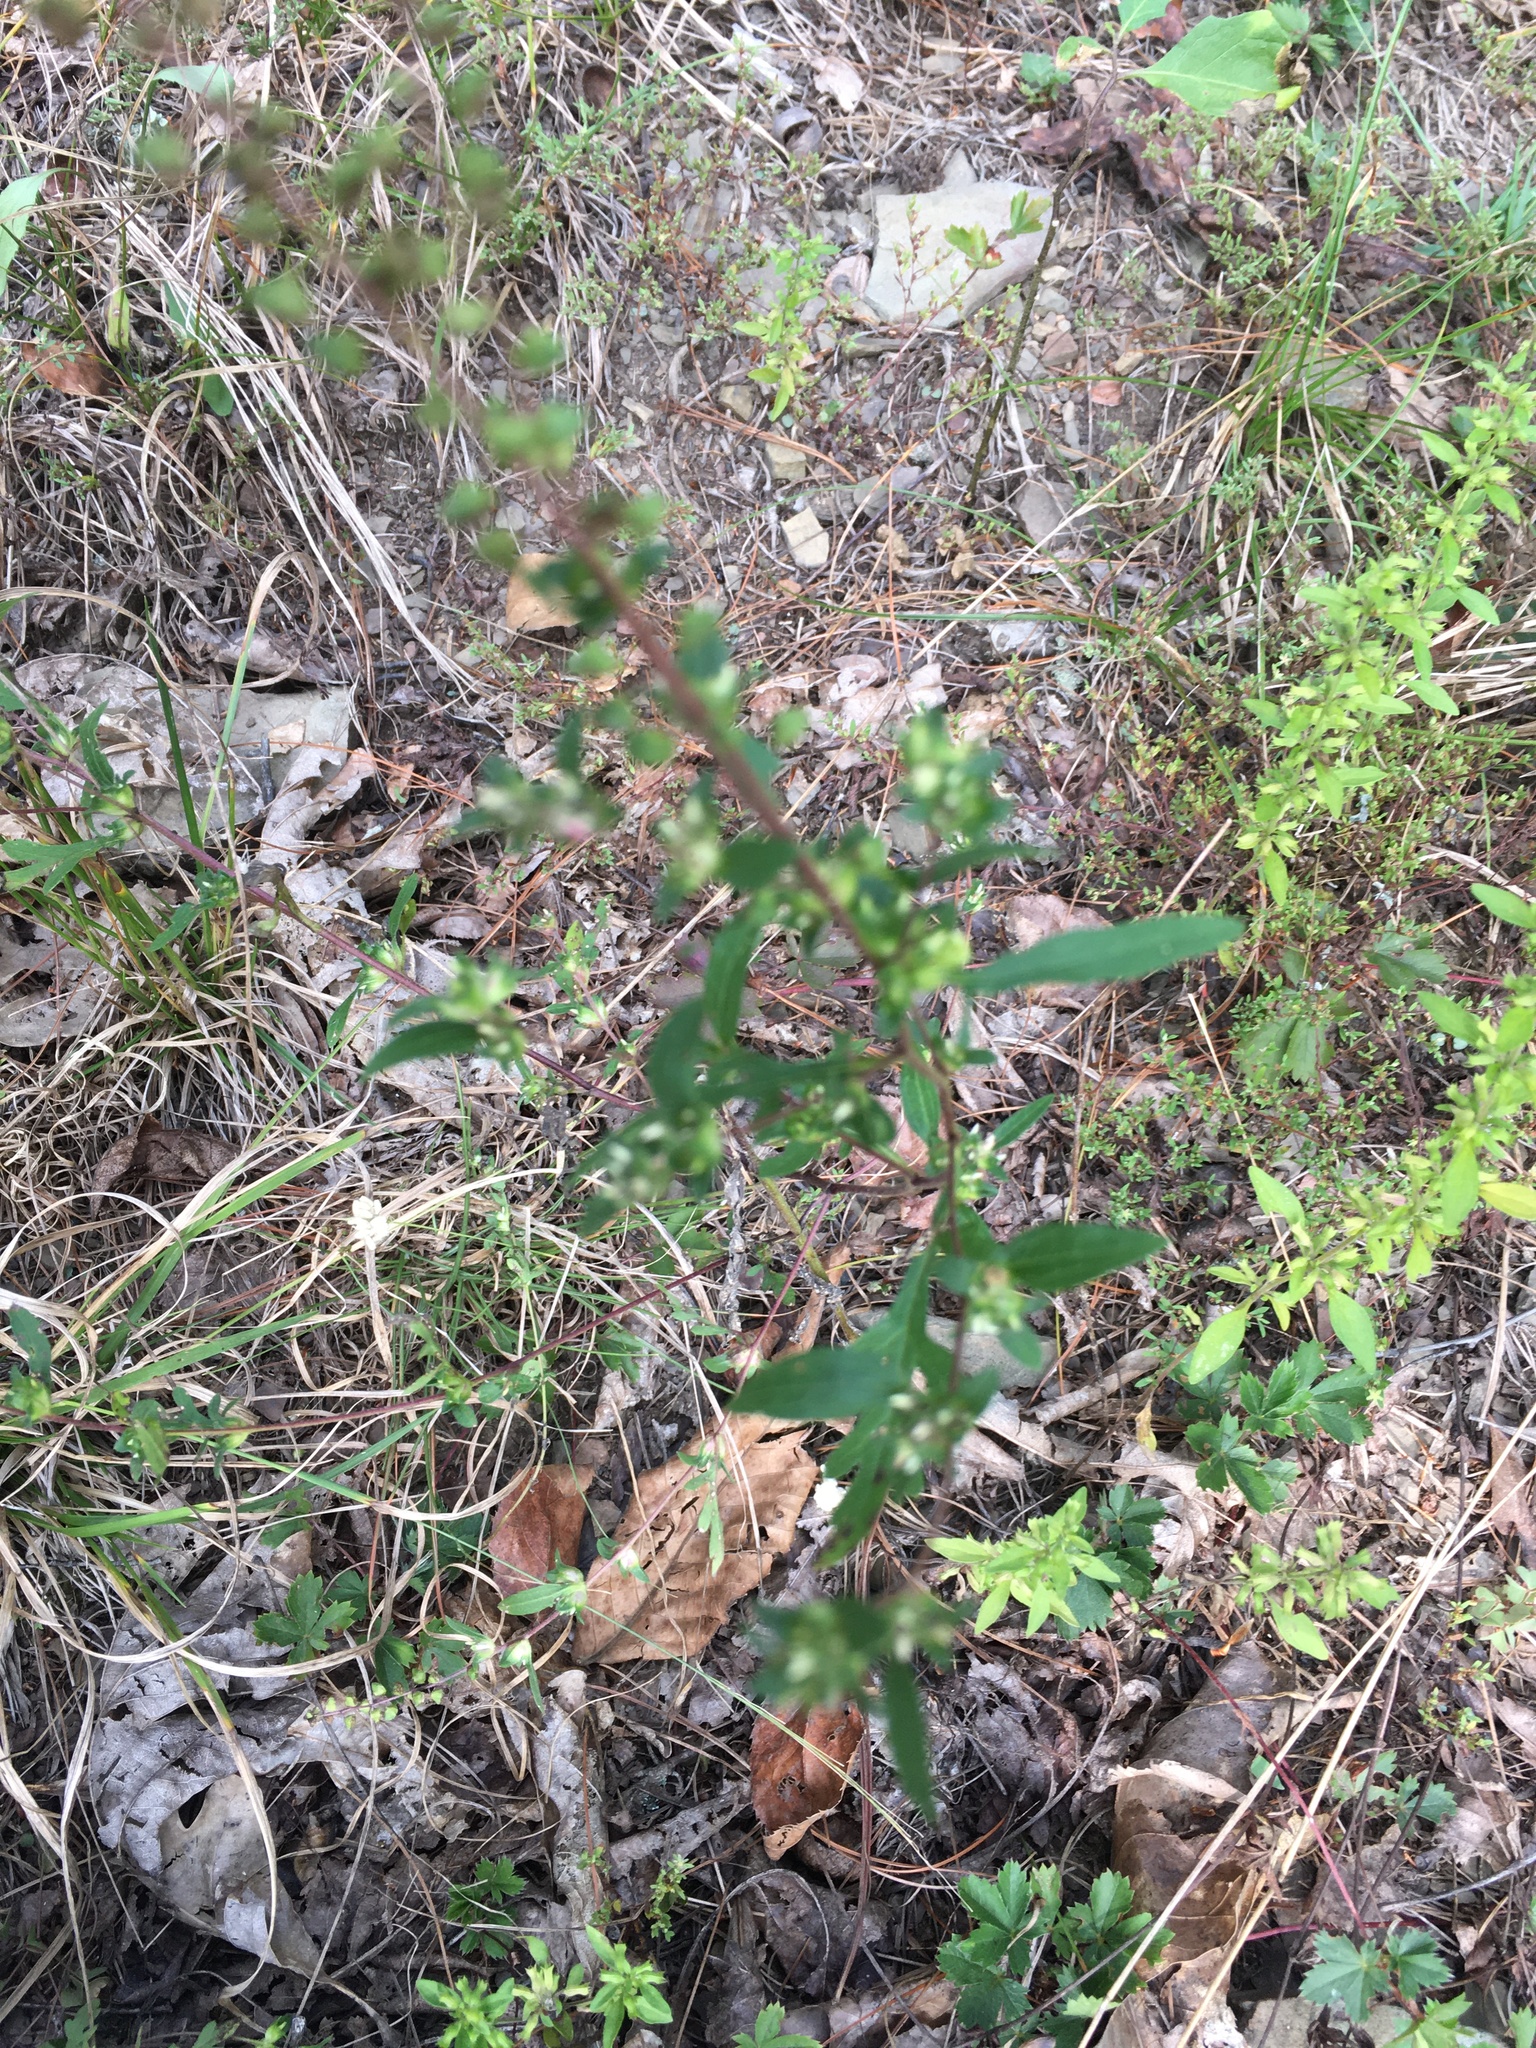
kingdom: Plantae
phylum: Tracheophyta
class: Magnoliopsida
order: Asterales
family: Asteraceae
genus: Ambrosia
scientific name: Ambrosia artemisiifolia
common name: Annual ragweed
